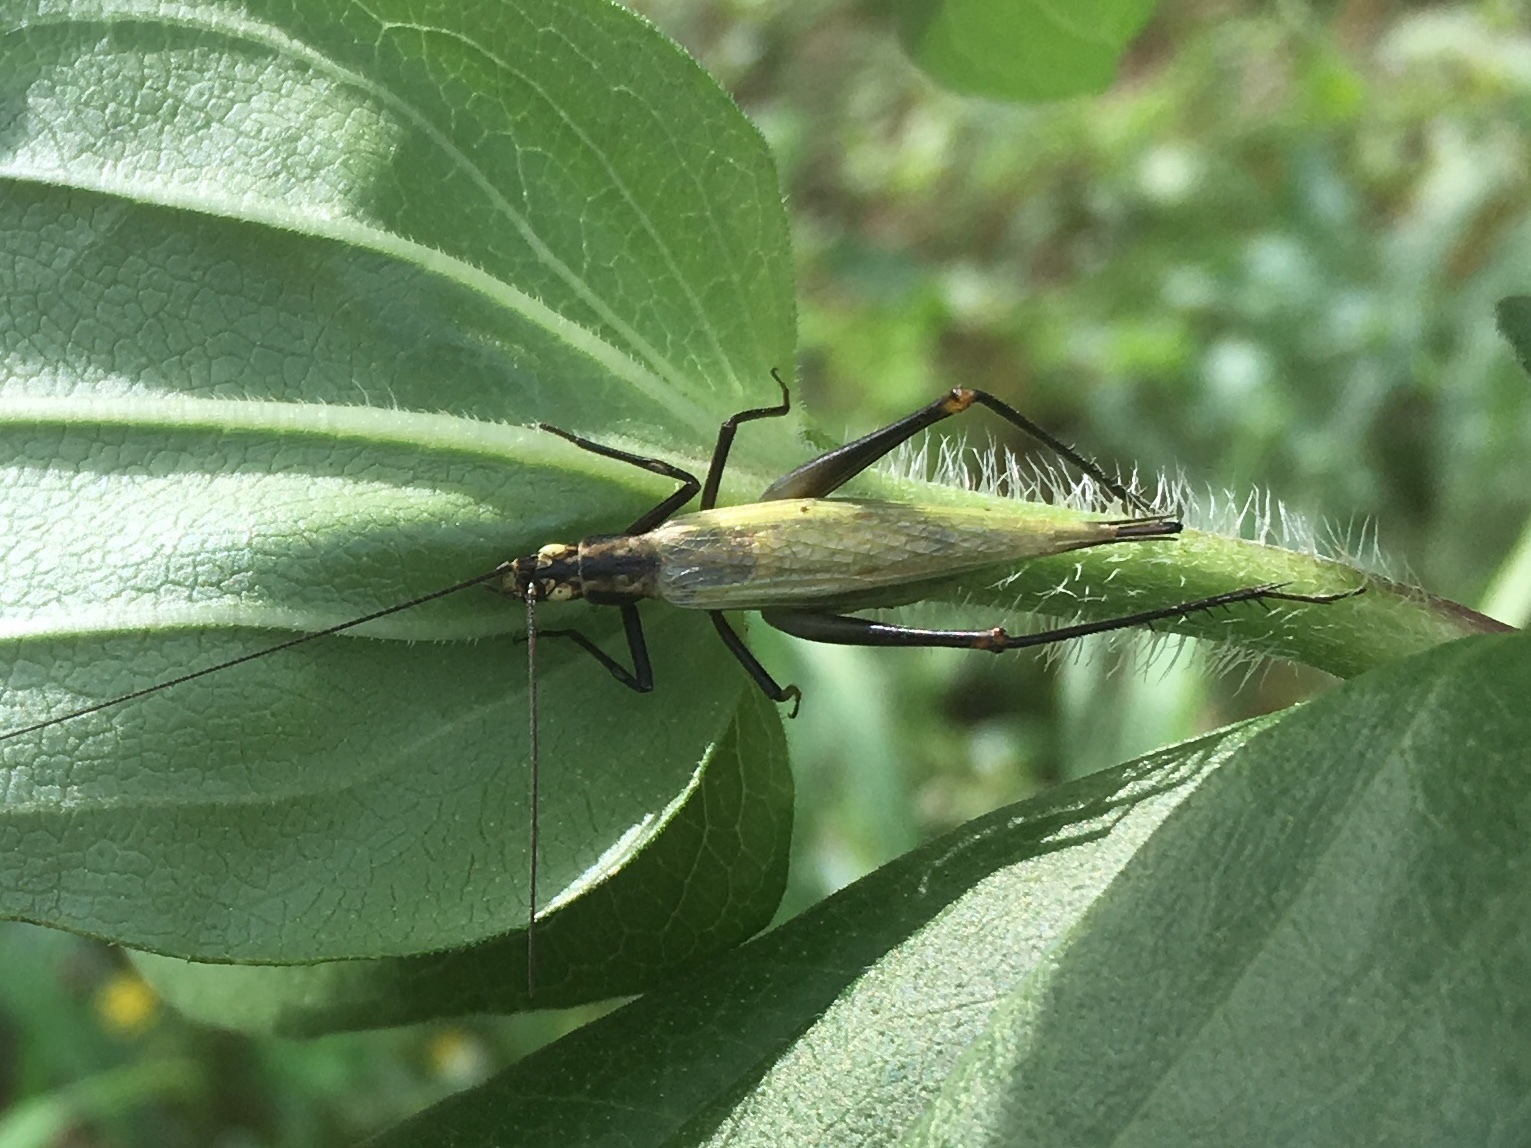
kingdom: Animalia
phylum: Arthropoda
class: Insecta
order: Orthoptera
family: Gryllidae
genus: Oecanthus
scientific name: Oecanthus nigricornis
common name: Black-horned tree cricket
